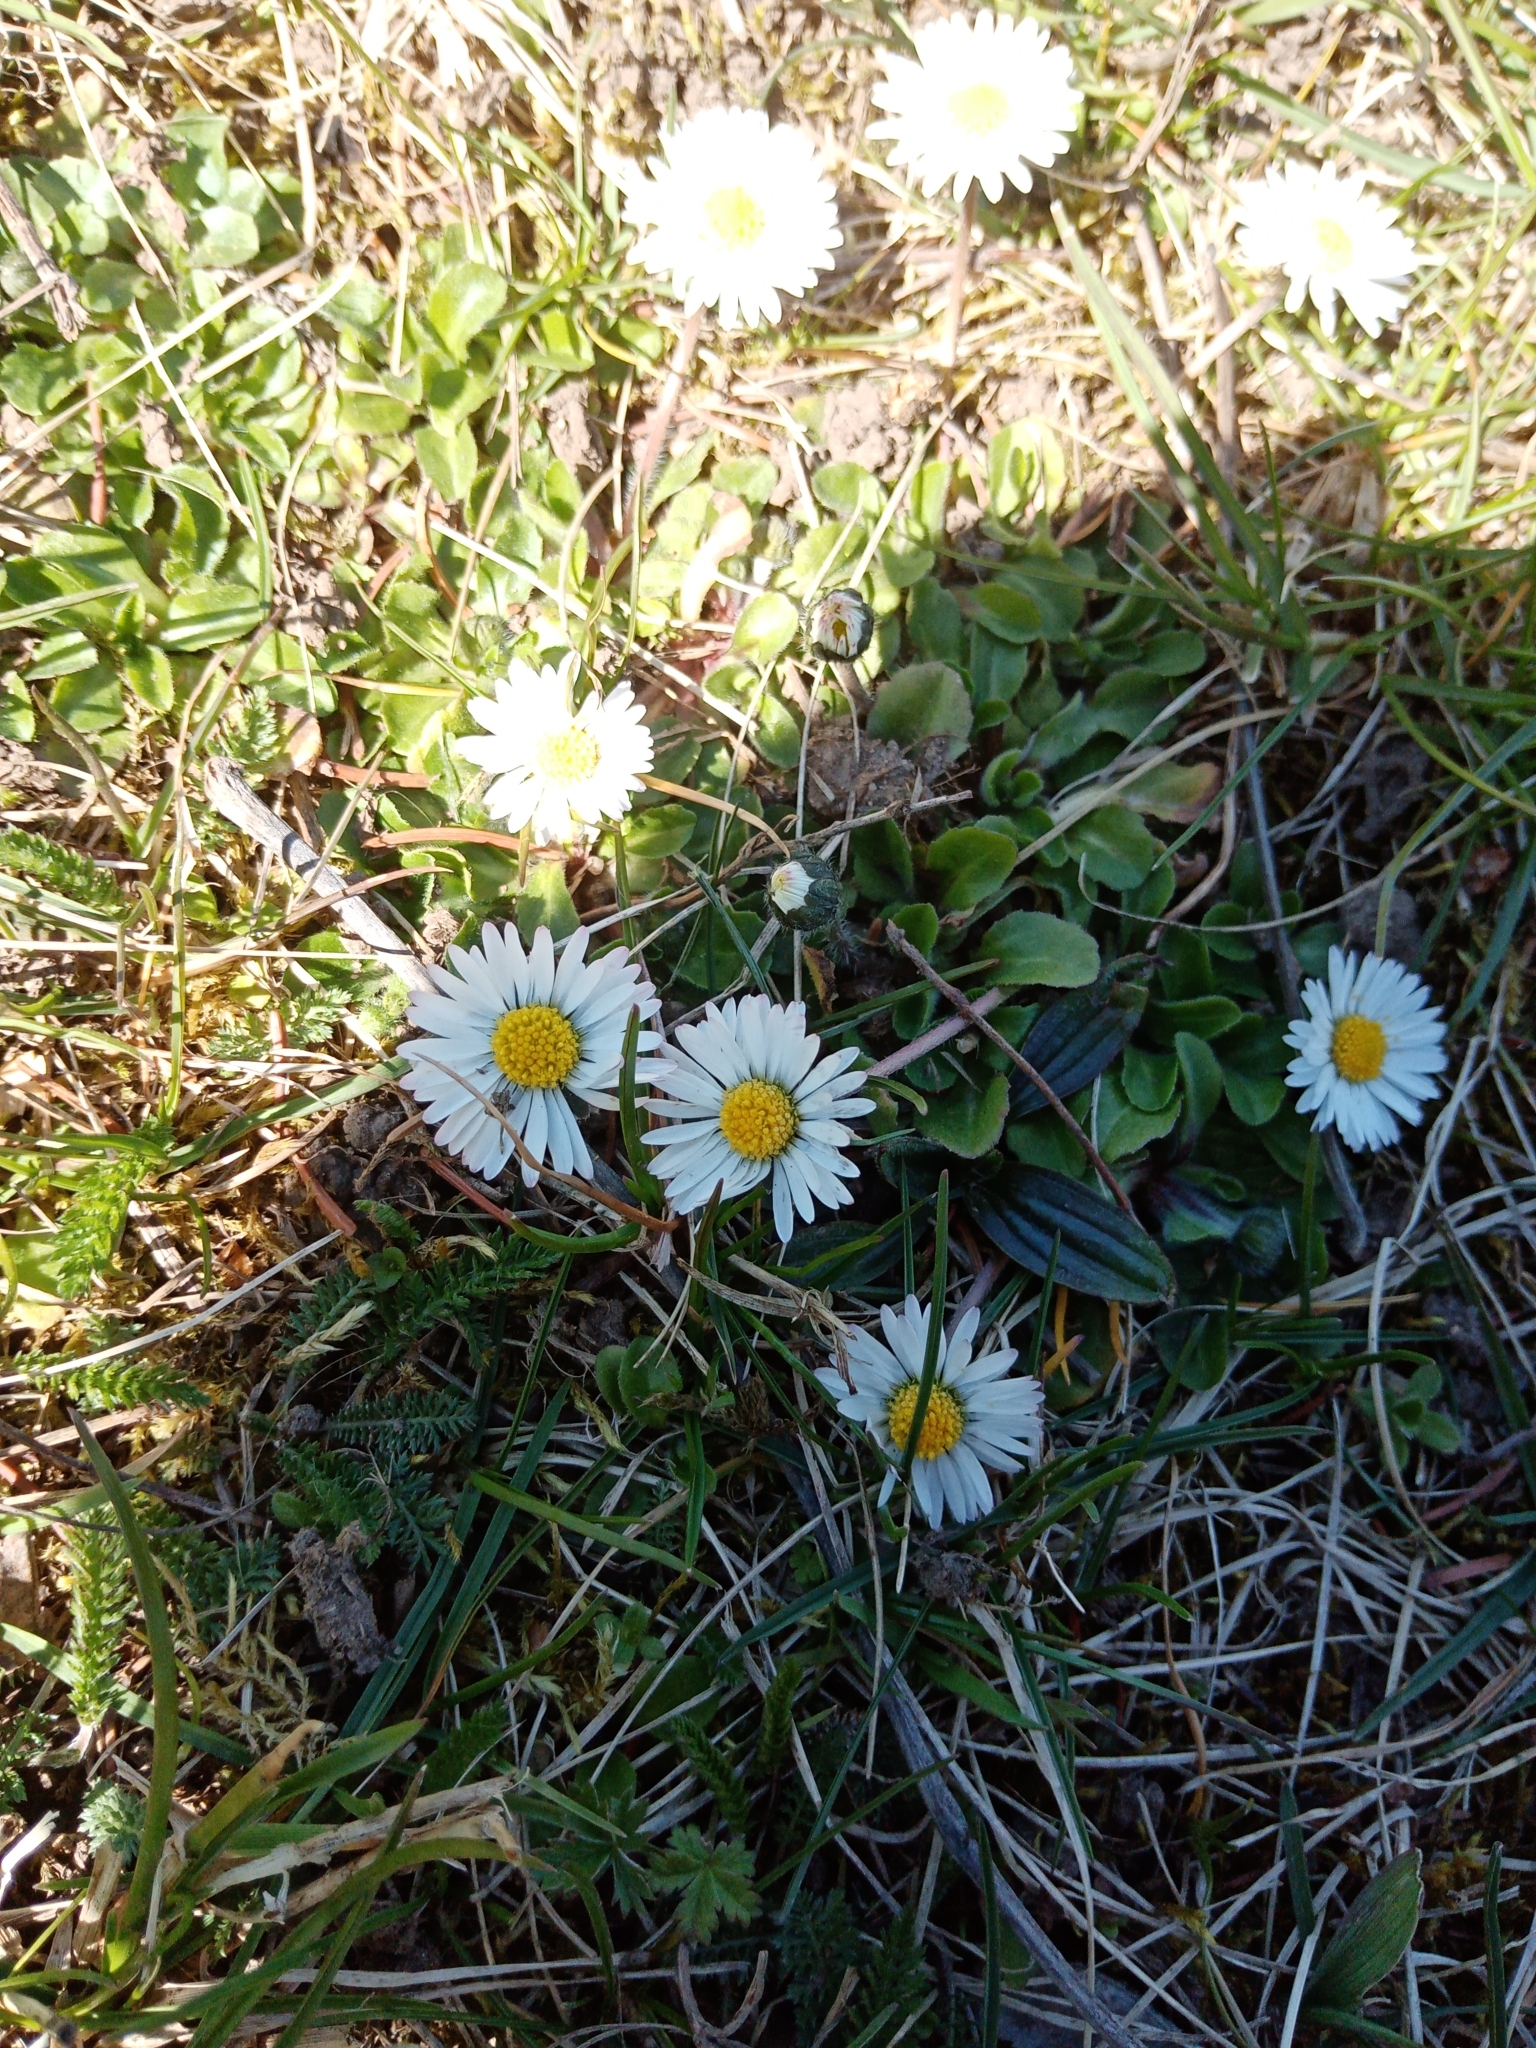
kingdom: Plantae
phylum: Tracheophyta
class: Magnoliopsida
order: Asterales
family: Asteraceae
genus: Bellis
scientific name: Bellis perennis
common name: Lawndaisy
